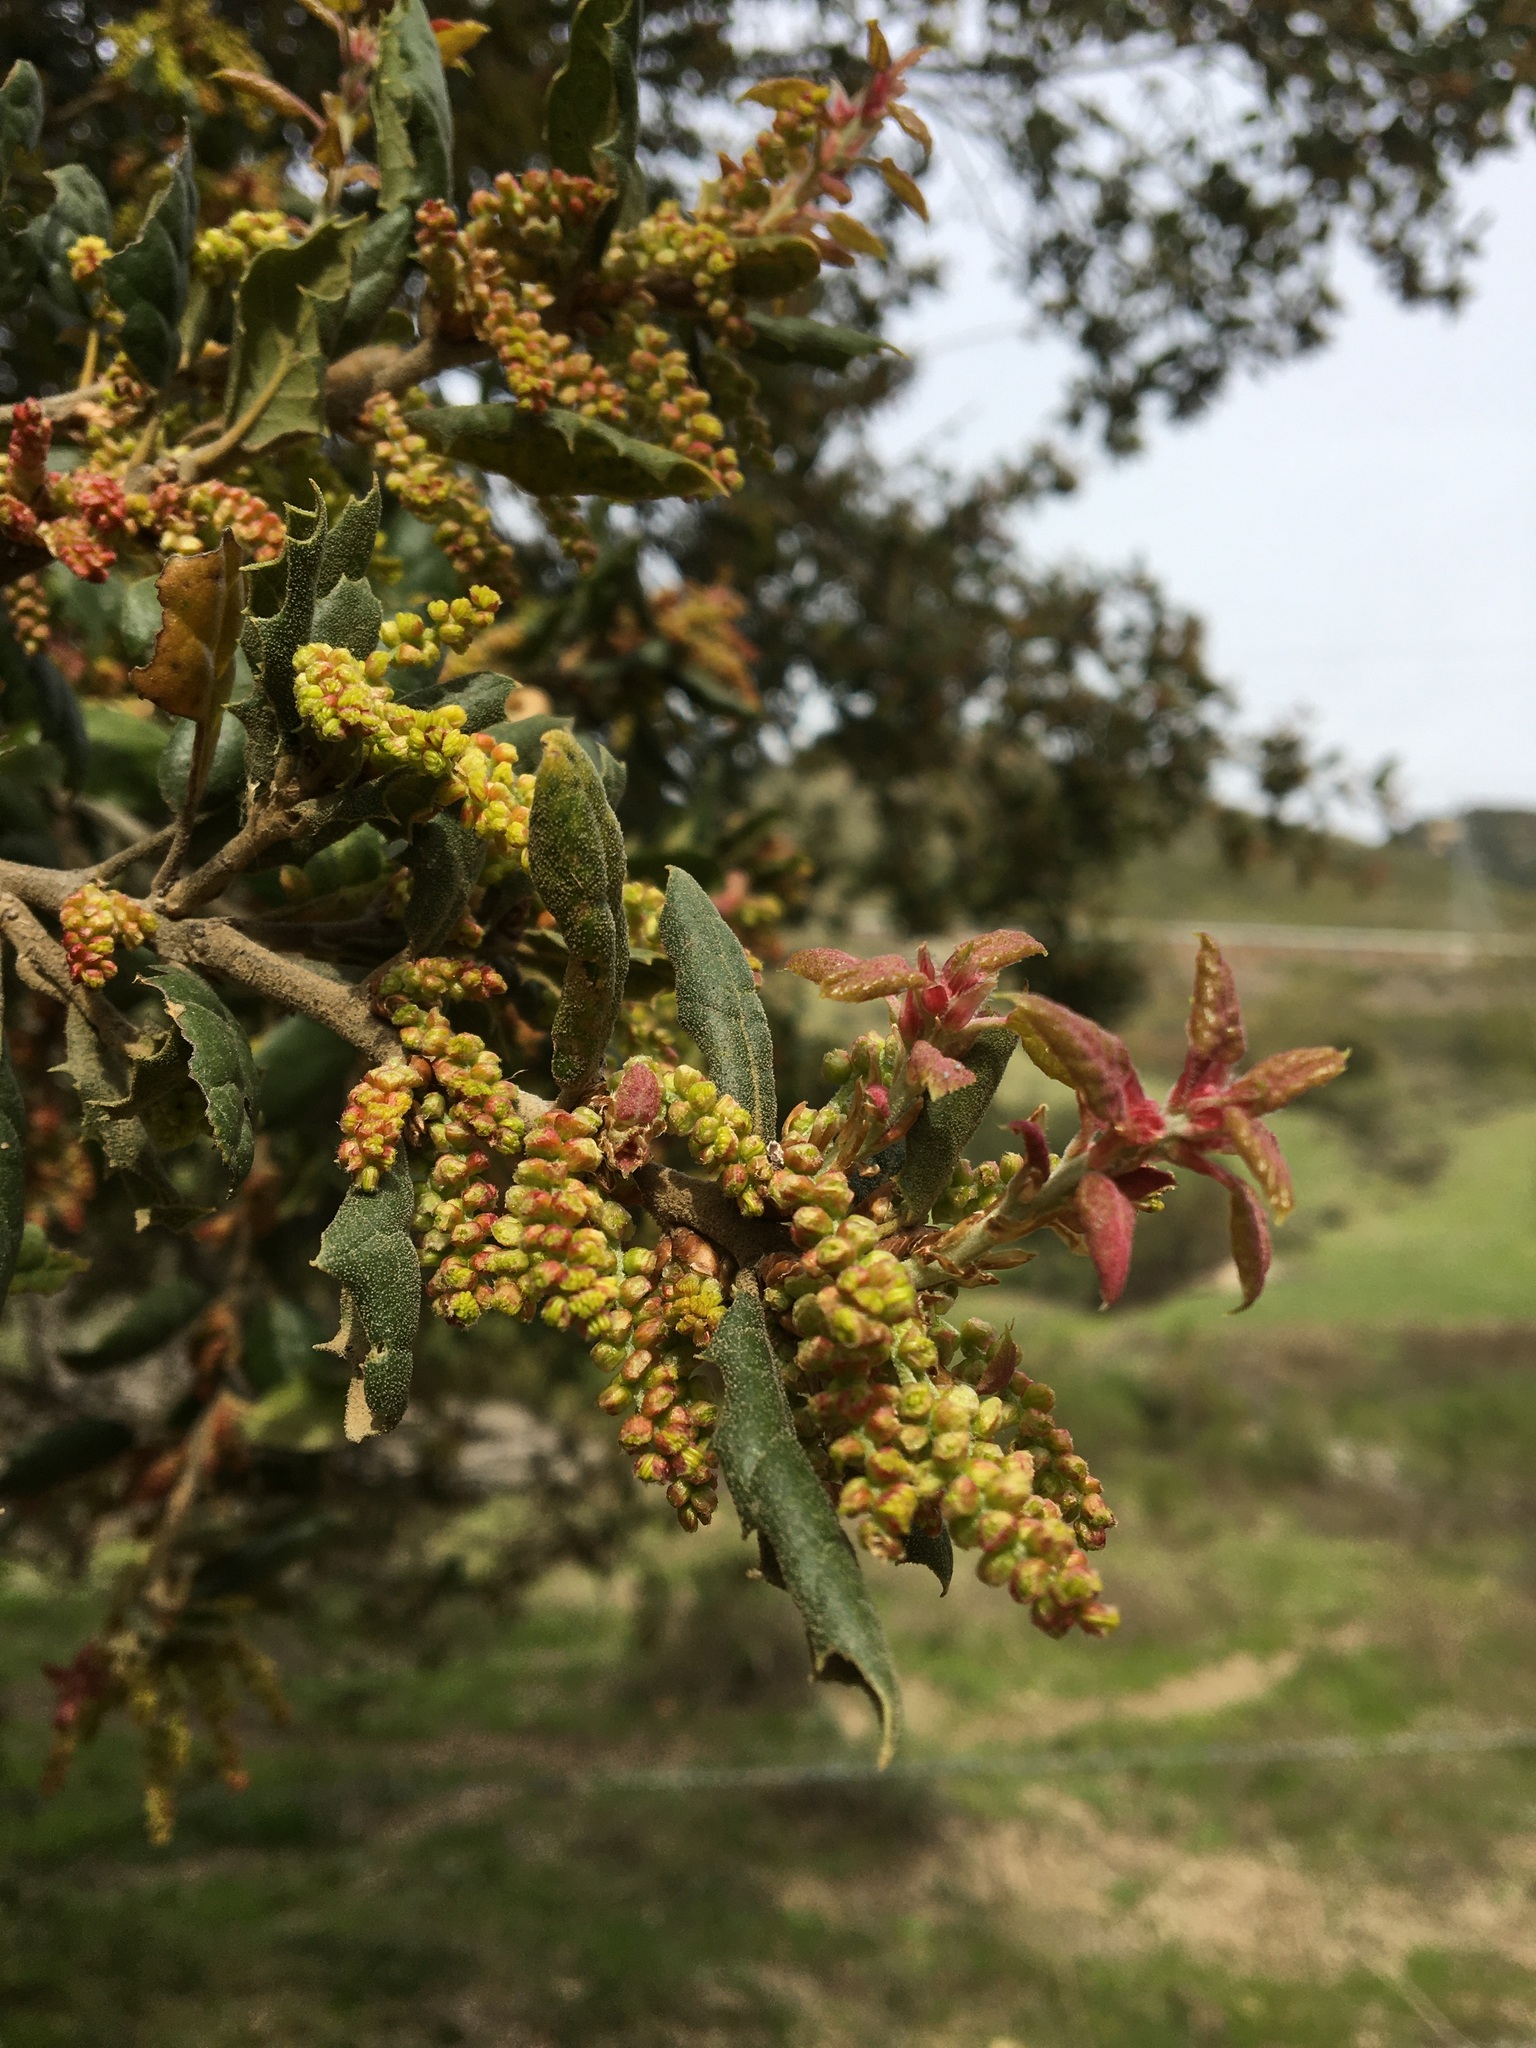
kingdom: Plantae
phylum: Tracheophyta
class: Magnoliopsida
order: Fagales
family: Fagaceae
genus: Quercus
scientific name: Quercus agrifolia
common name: California live oak
